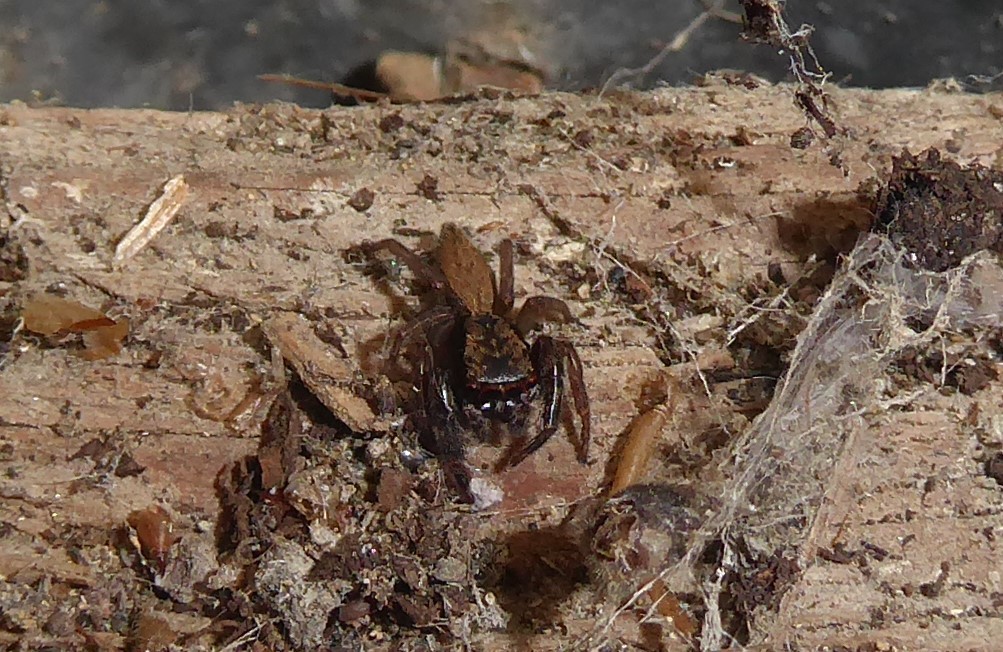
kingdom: Animalia
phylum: Arthropoda
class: Arachnida
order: Araneae
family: Salticidae
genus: Trite
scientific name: Trite auricoma
